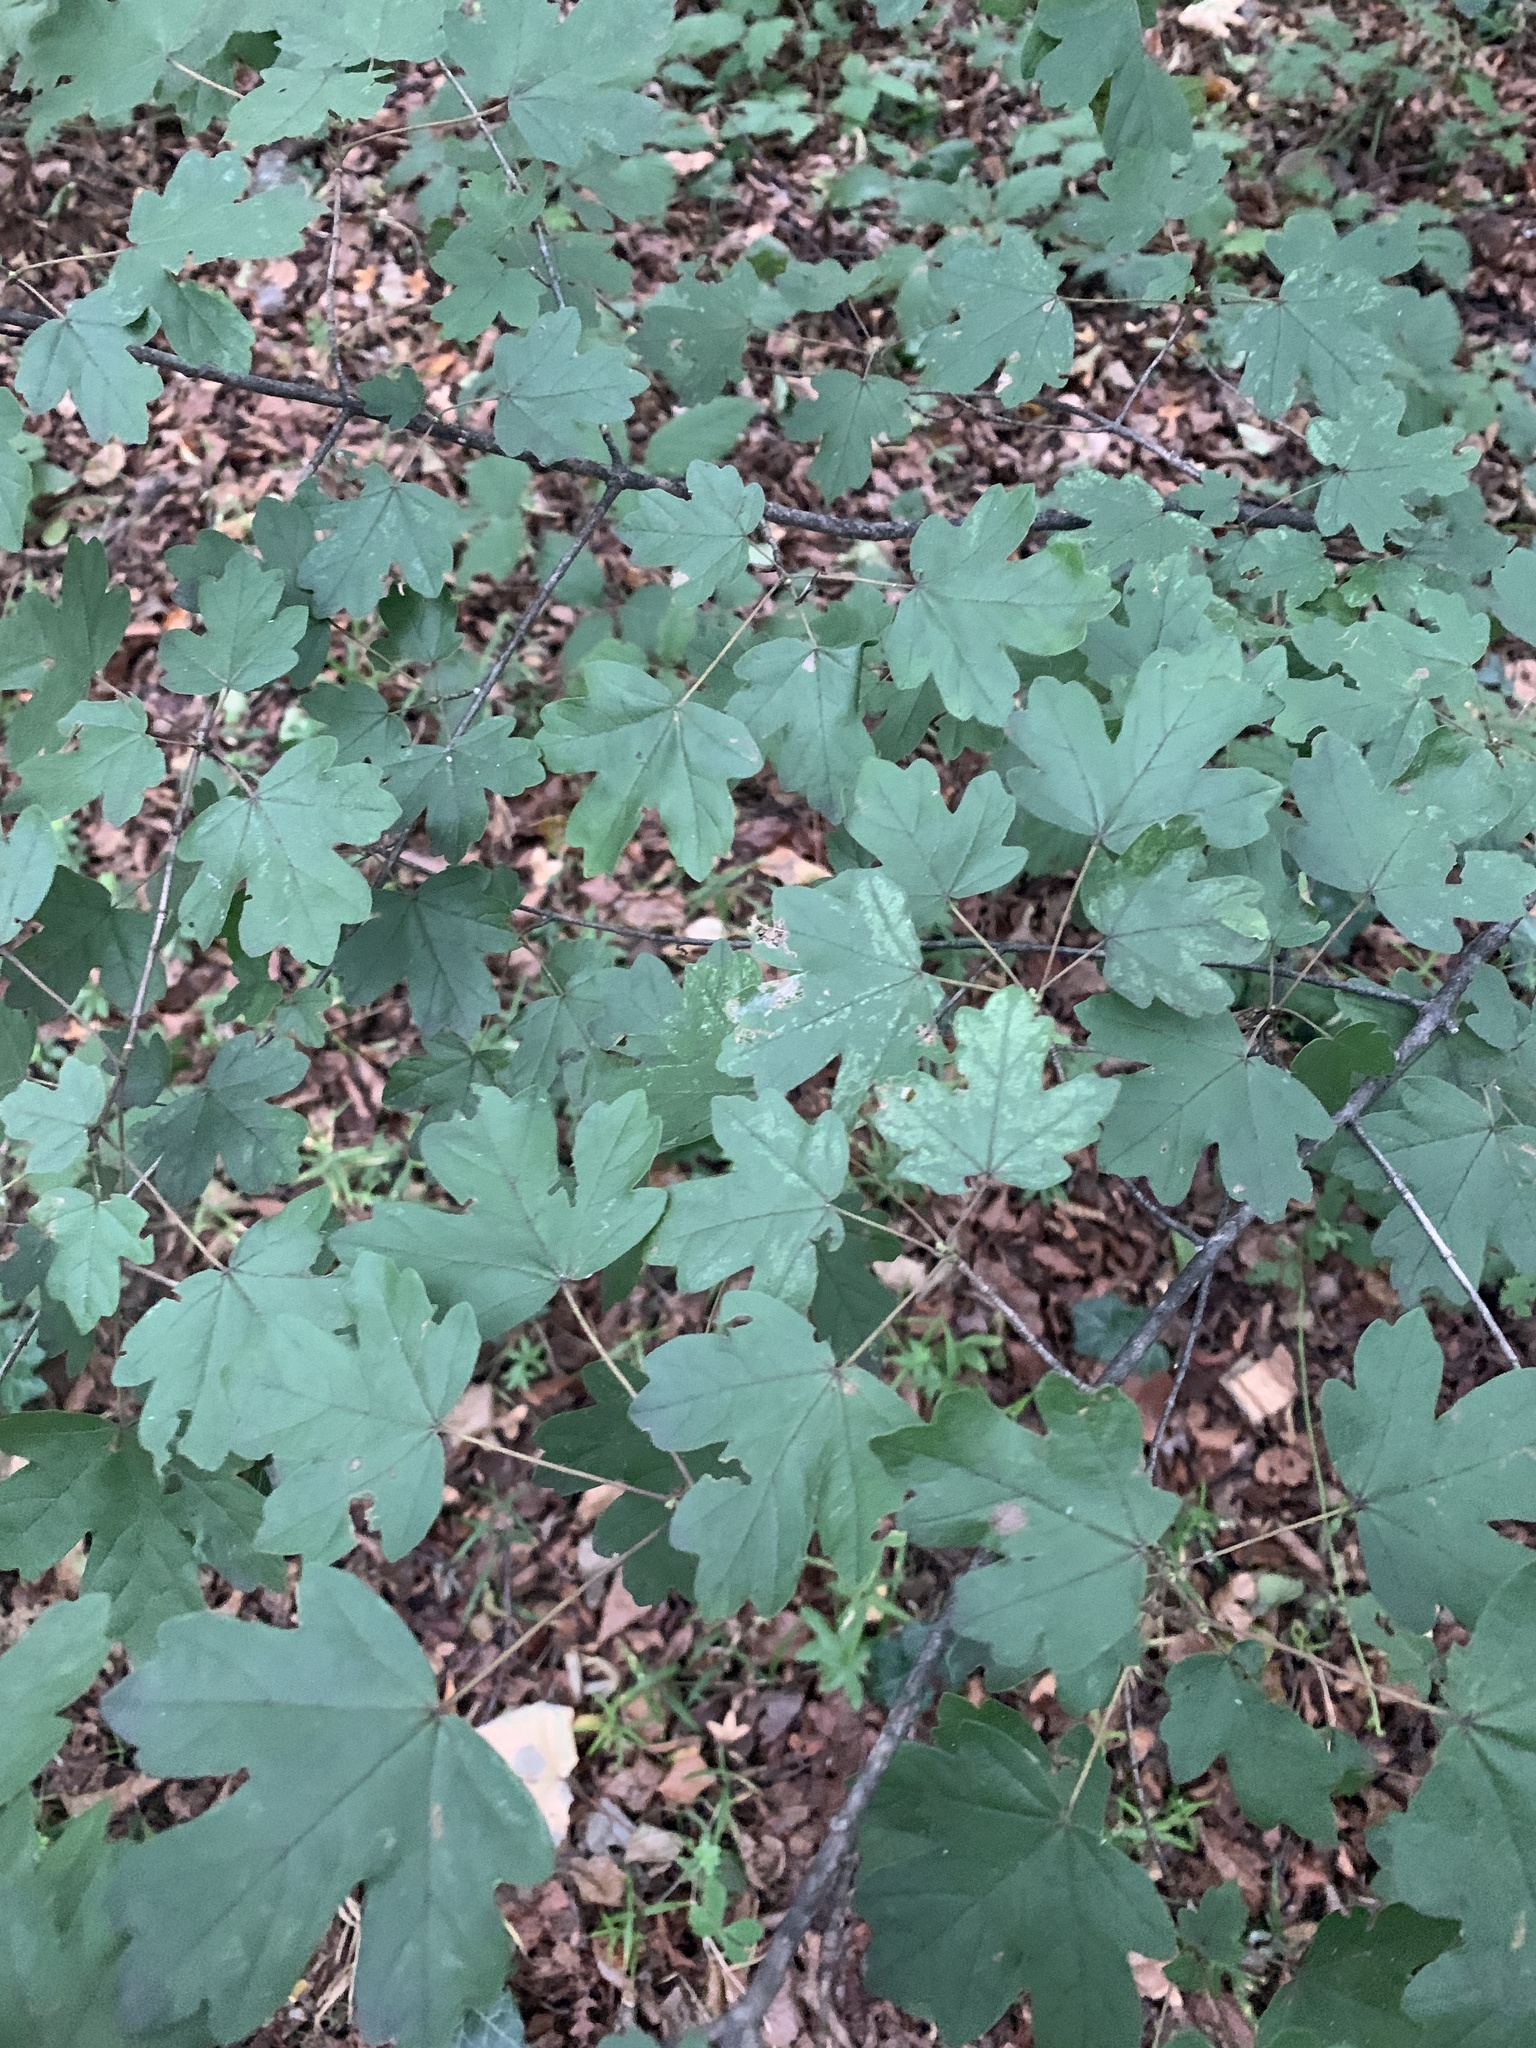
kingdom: Plantae
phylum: Tracheophyta
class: Magnoliopsida
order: Sapindales
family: Sapindaceae
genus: Acer
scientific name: Acer campestre
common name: Field maple
